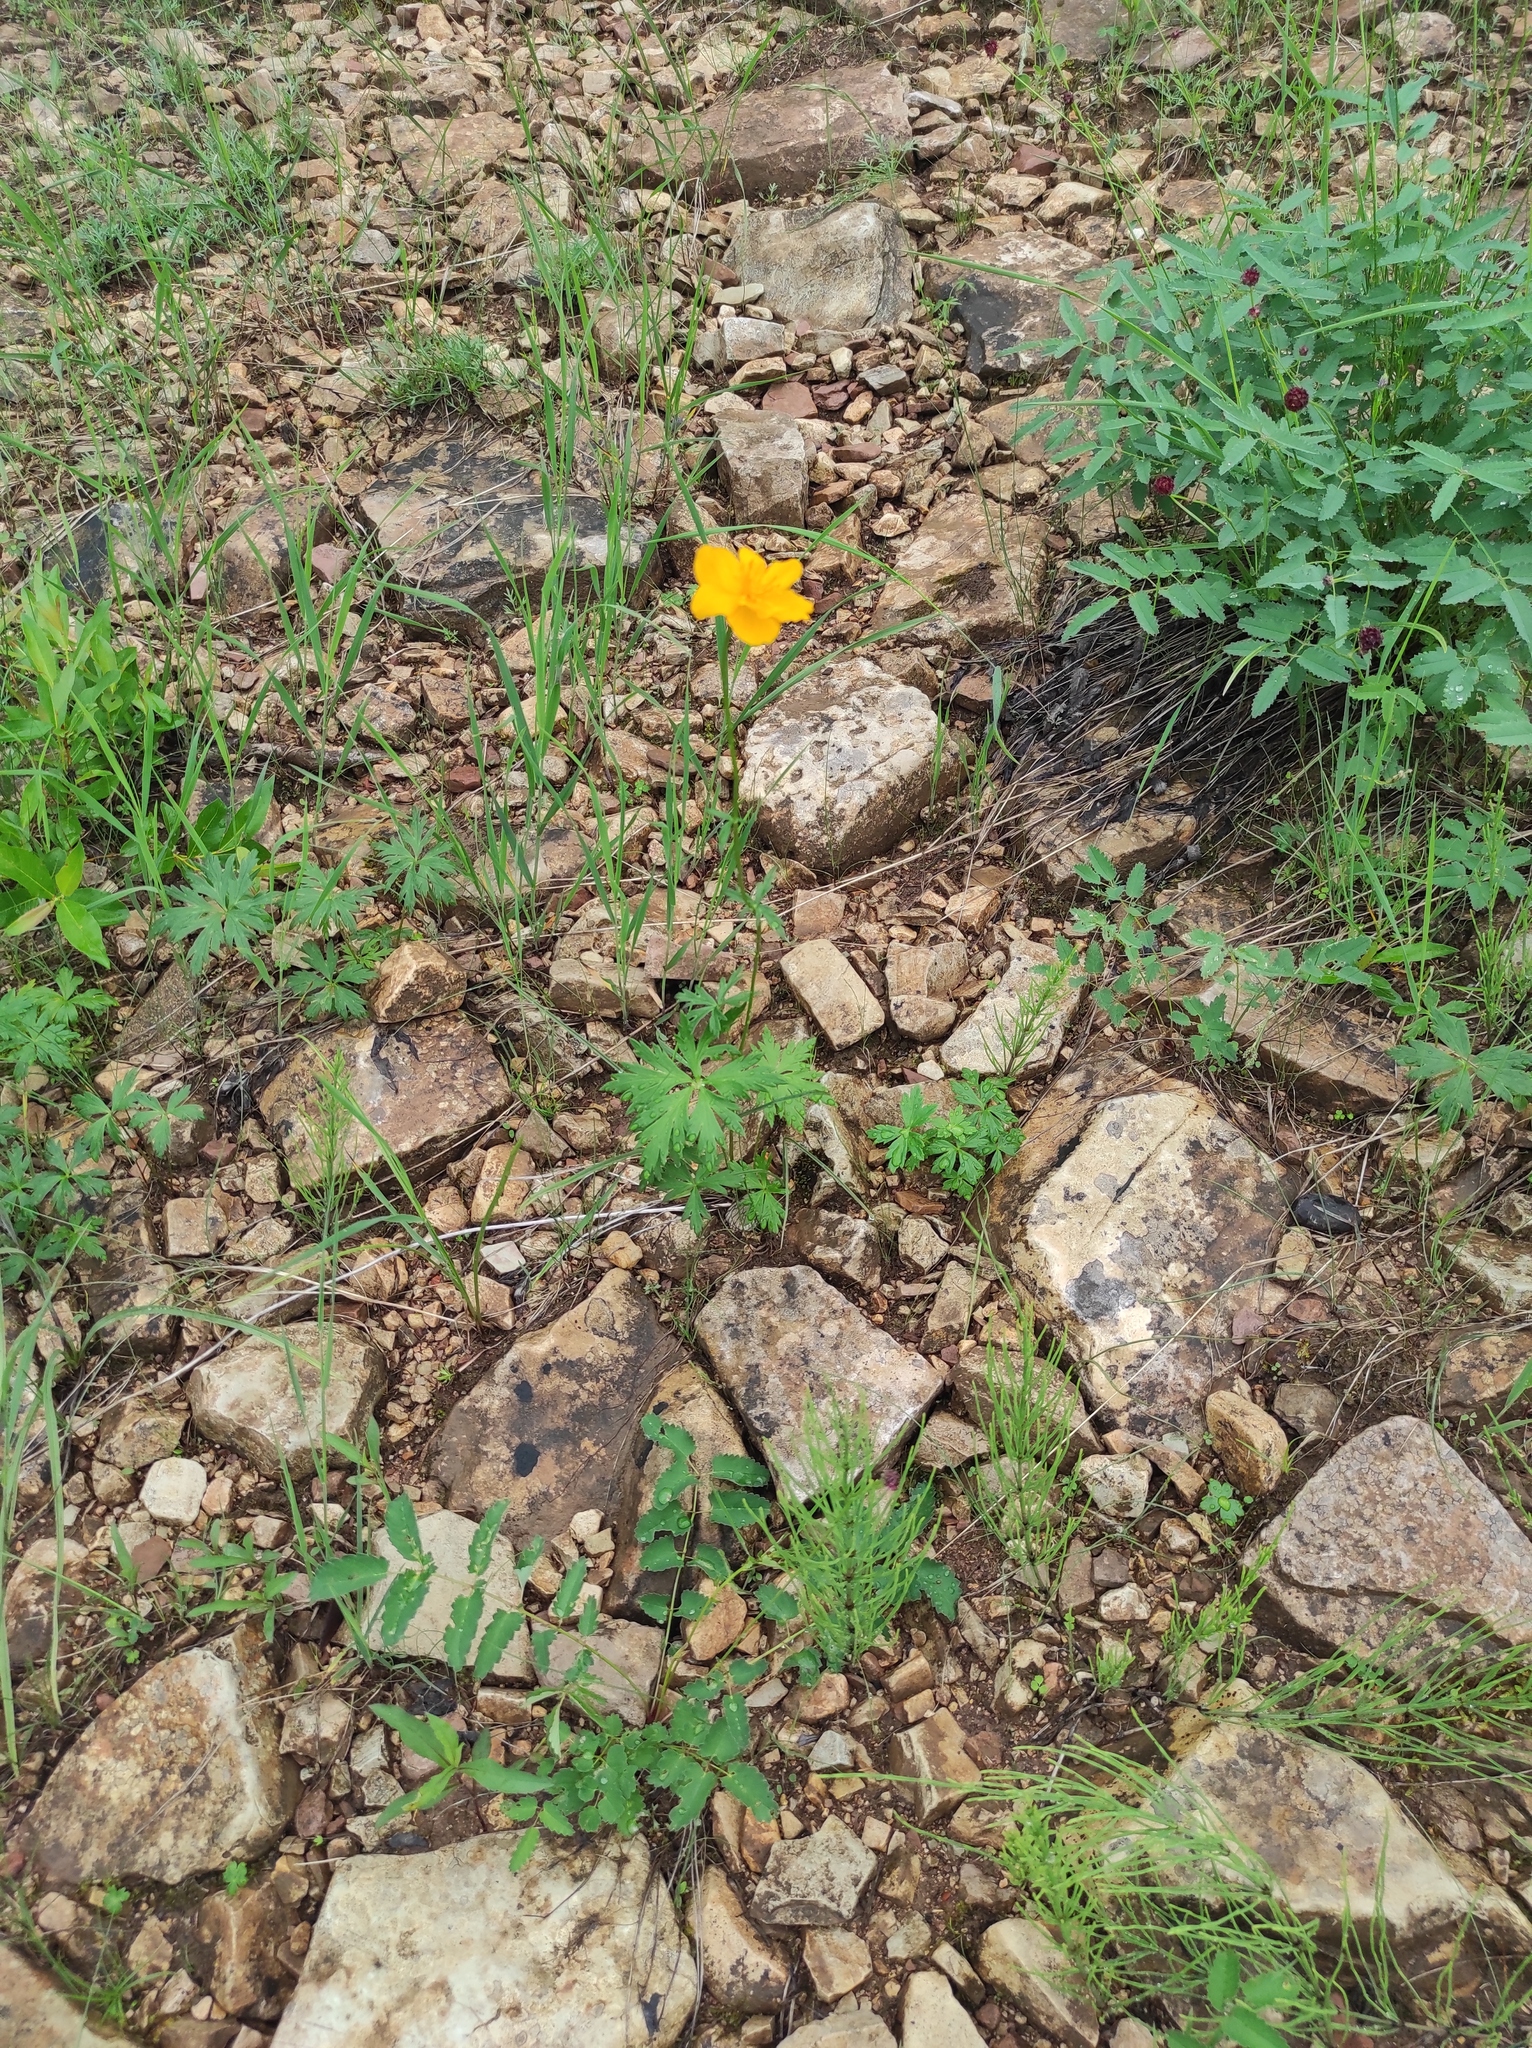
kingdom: Plantae
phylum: Tracheophyta
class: Magnoliopsida
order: Ranunculales
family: Ranunculaceae
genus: Trollius
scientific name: Trollius membranostylis
